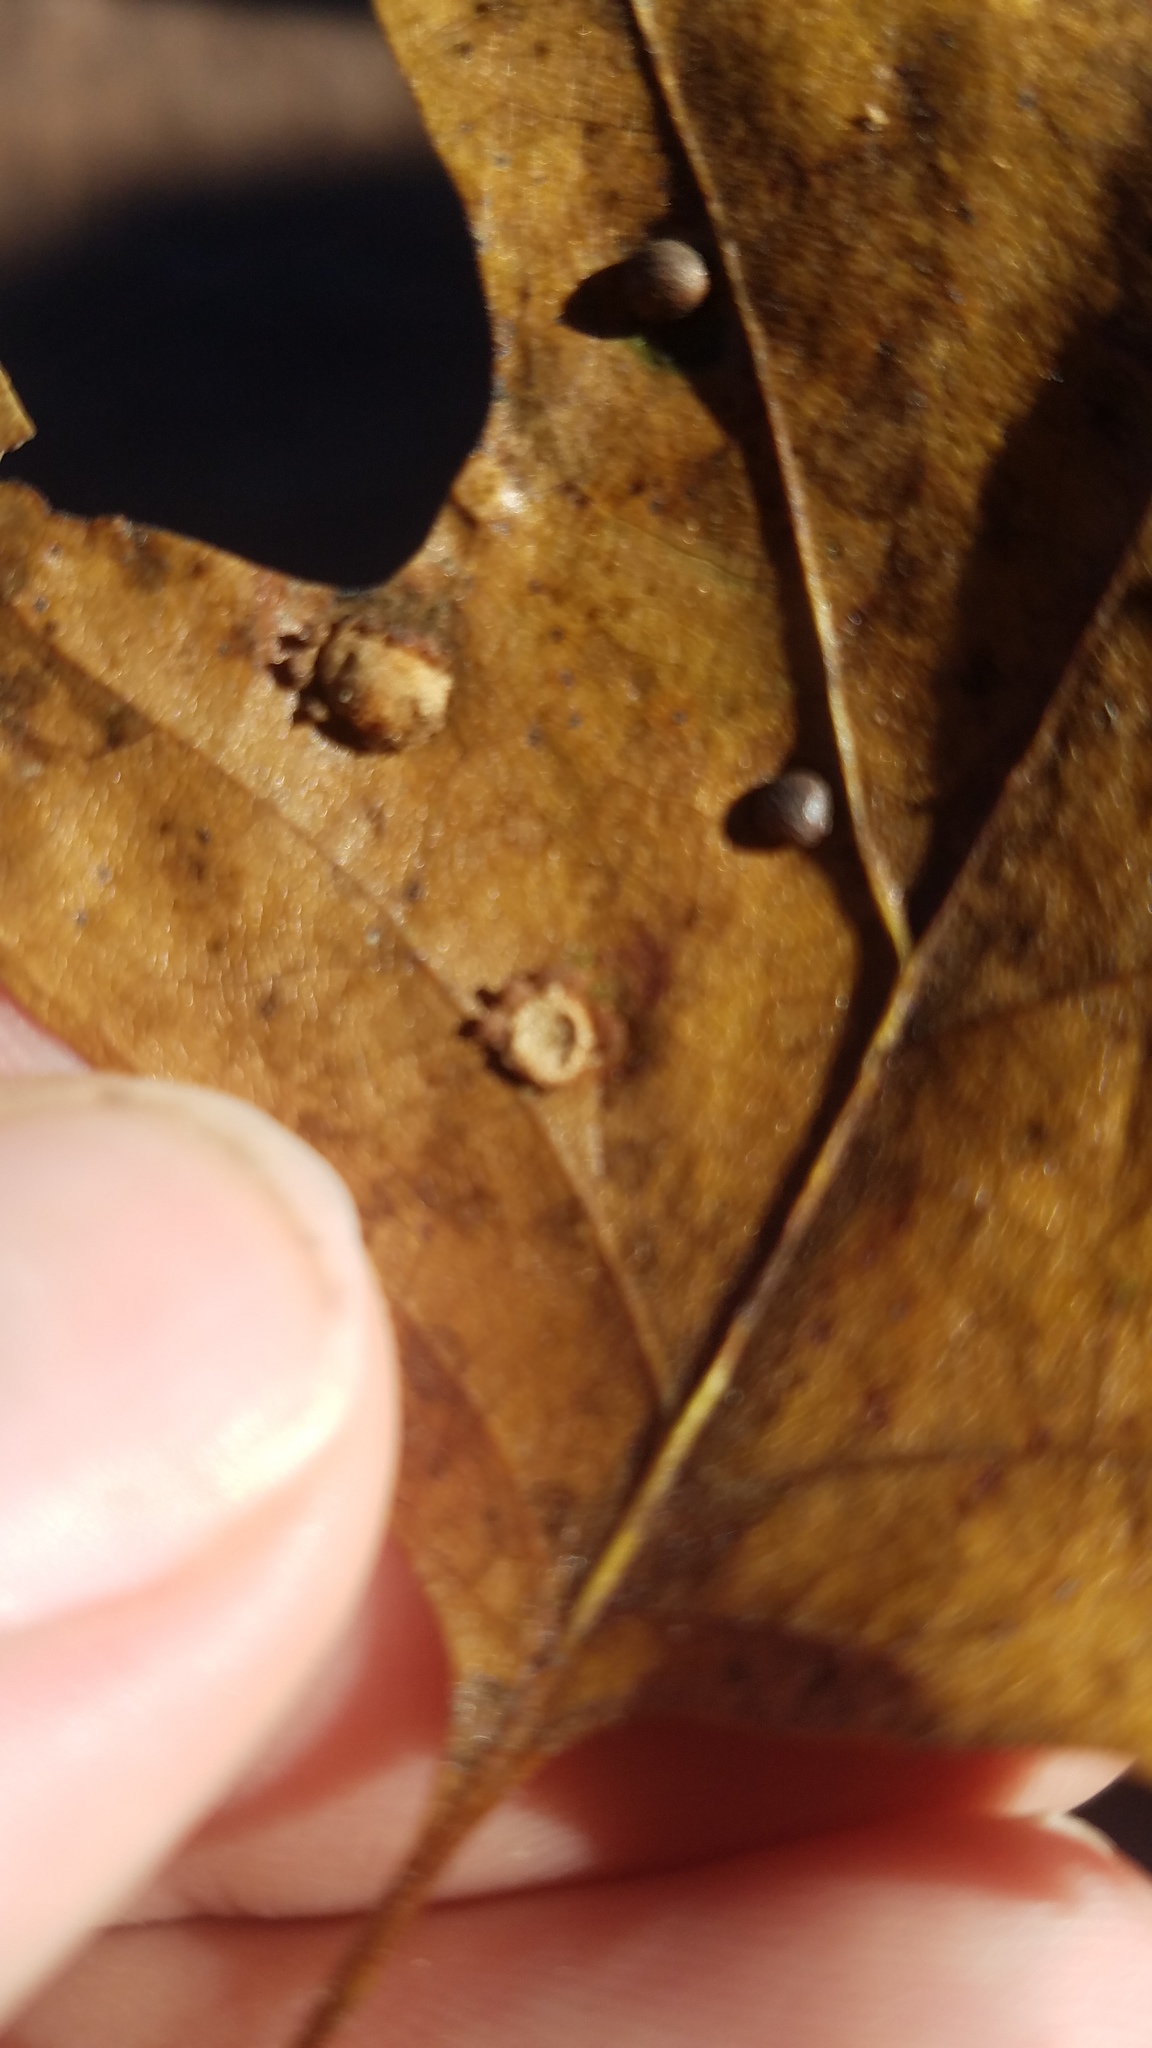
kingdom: Animalia
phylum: Arthropoda
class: Insecta
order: Diptera
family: Cecidomyiidae
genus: Polystepha
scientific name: Polystepha pilulae
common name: Oak leaf gall midge
